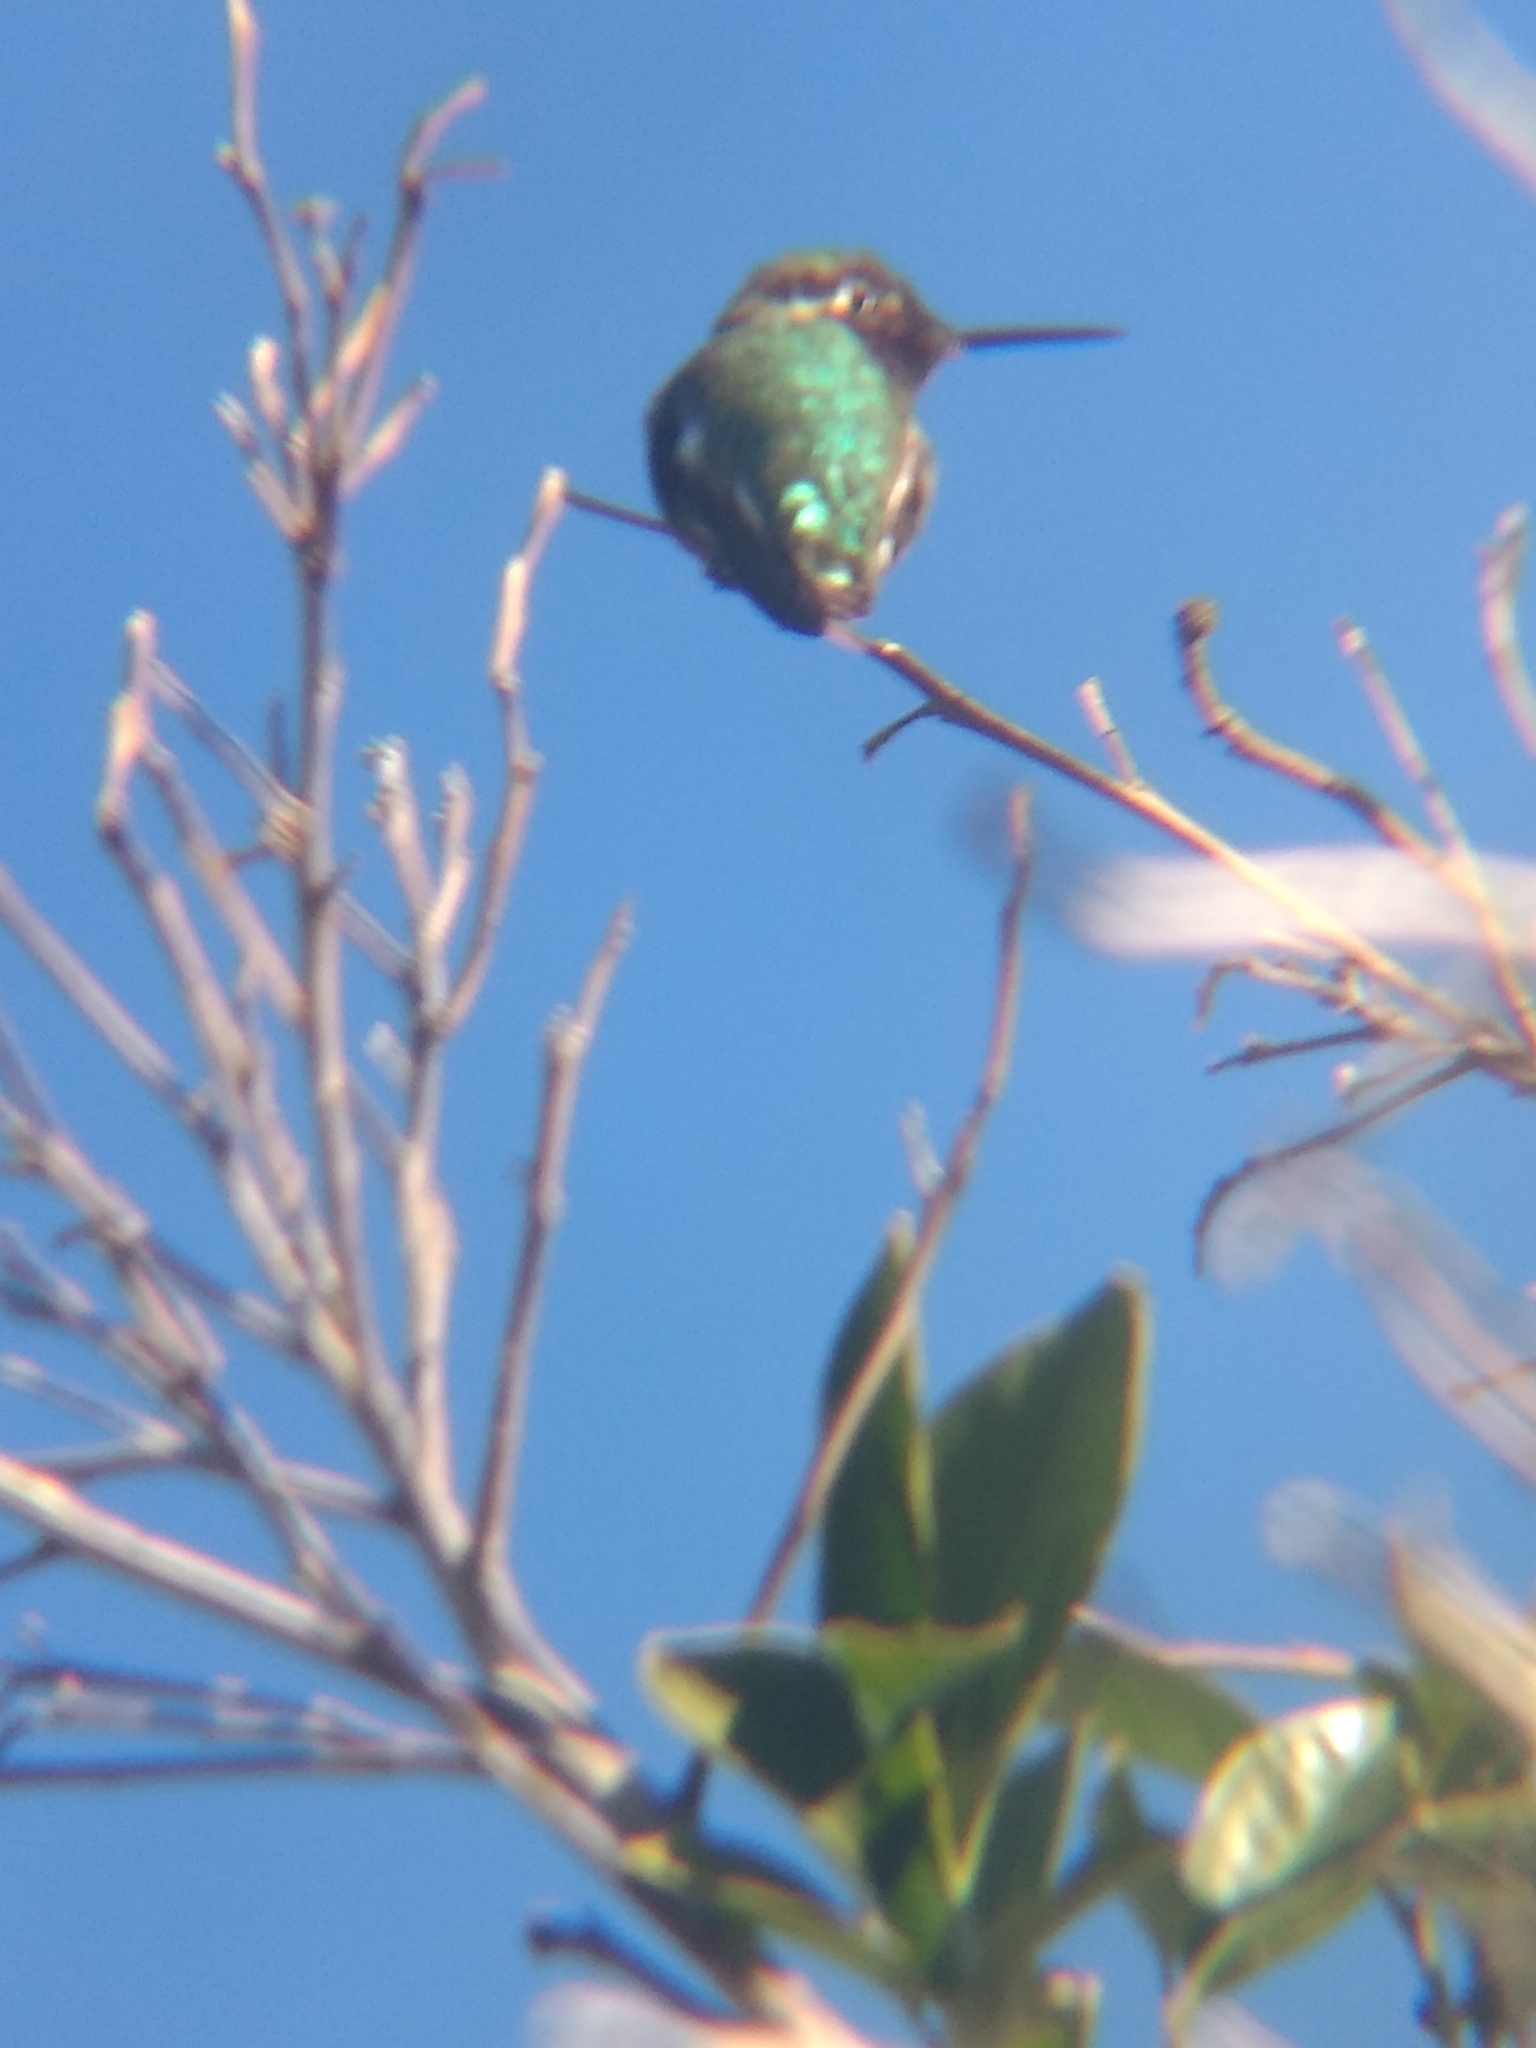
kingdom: Animalia
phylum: Chordata
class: Aves
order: Apodiformes
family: Trochilidae
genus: Calypte
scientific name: Calypte anna
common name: Anna's hummingbird
